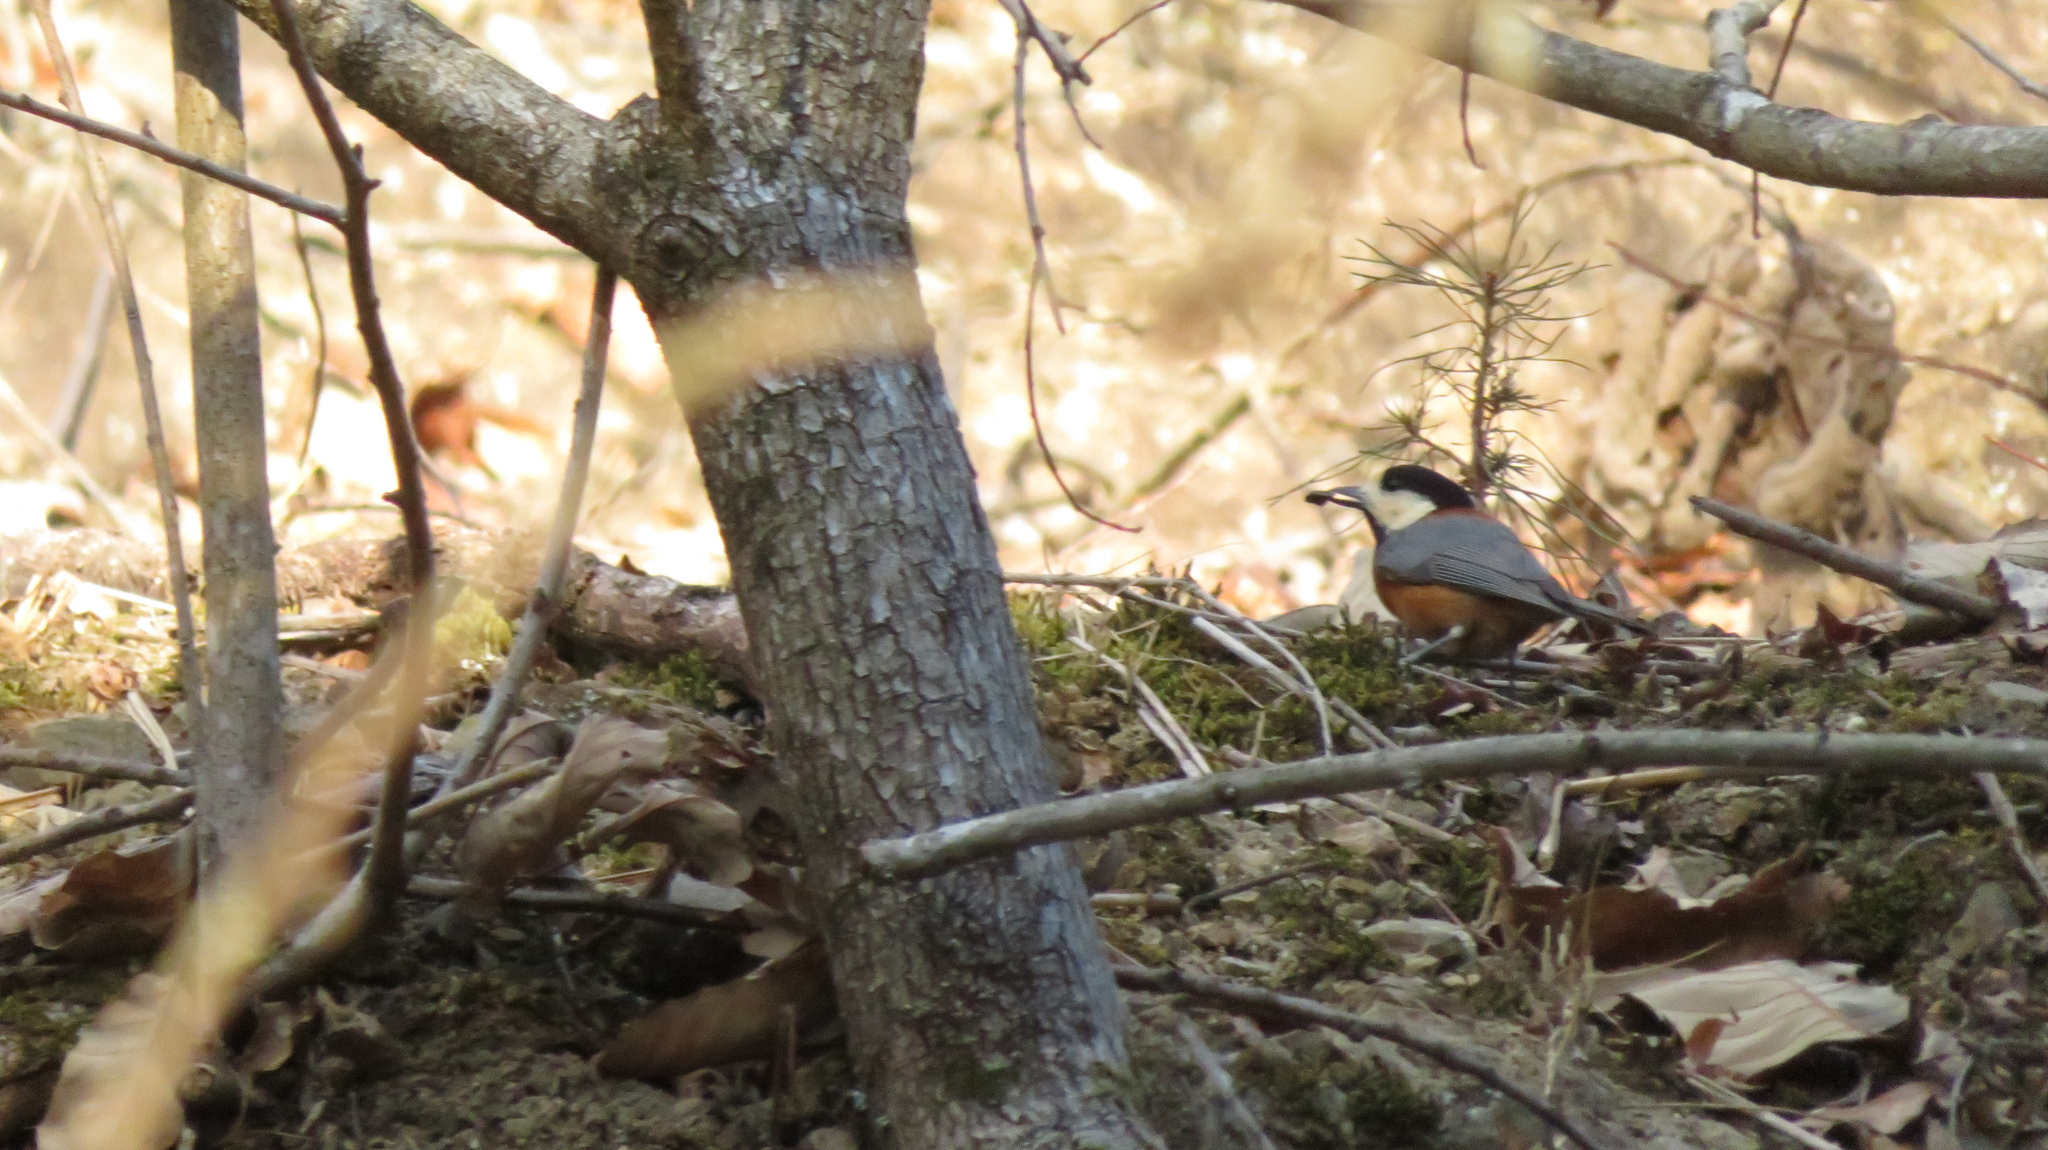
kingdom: Animalia
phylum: Chordata
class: Aves
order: Passeriformes
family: Paridae
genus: Poecile
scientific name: Poecile varius
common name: Varied tit
